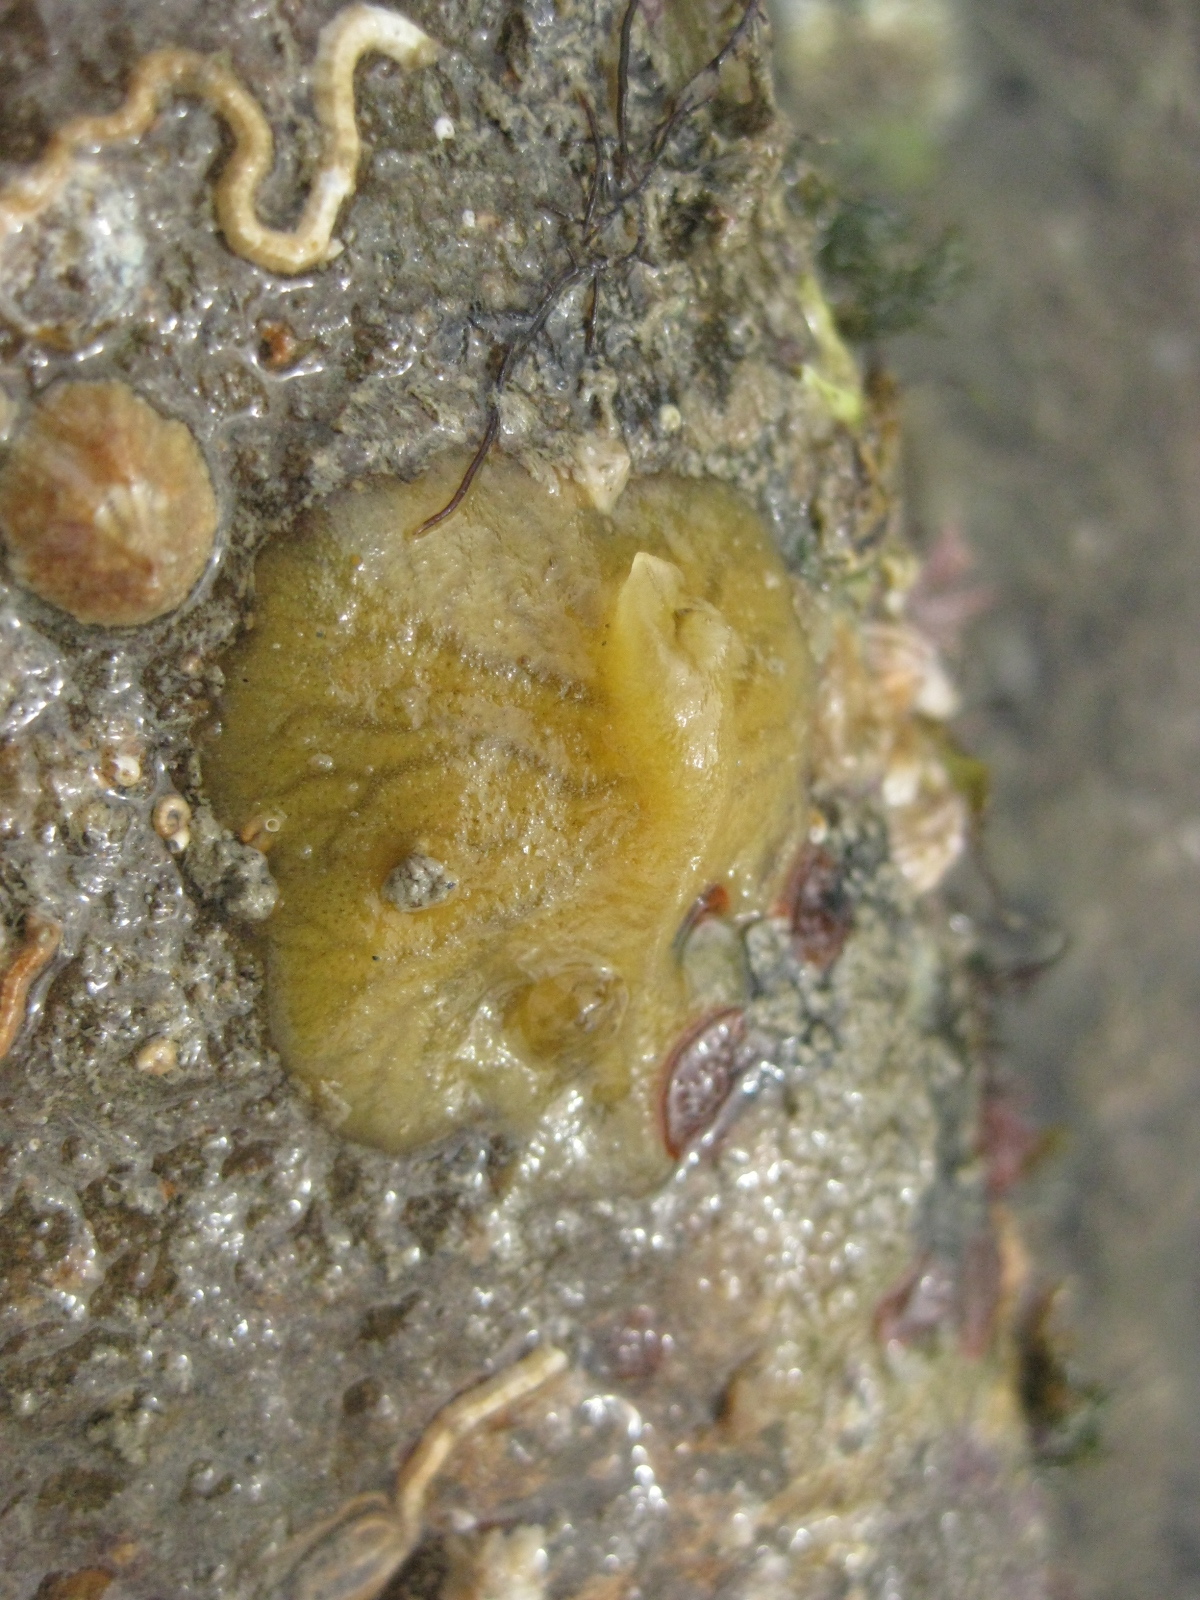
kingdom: Animalia
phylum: Porifera
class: Demospongiae
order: Tethyida
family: Timeidae
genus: Timea
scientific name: Timea aurantiaca
